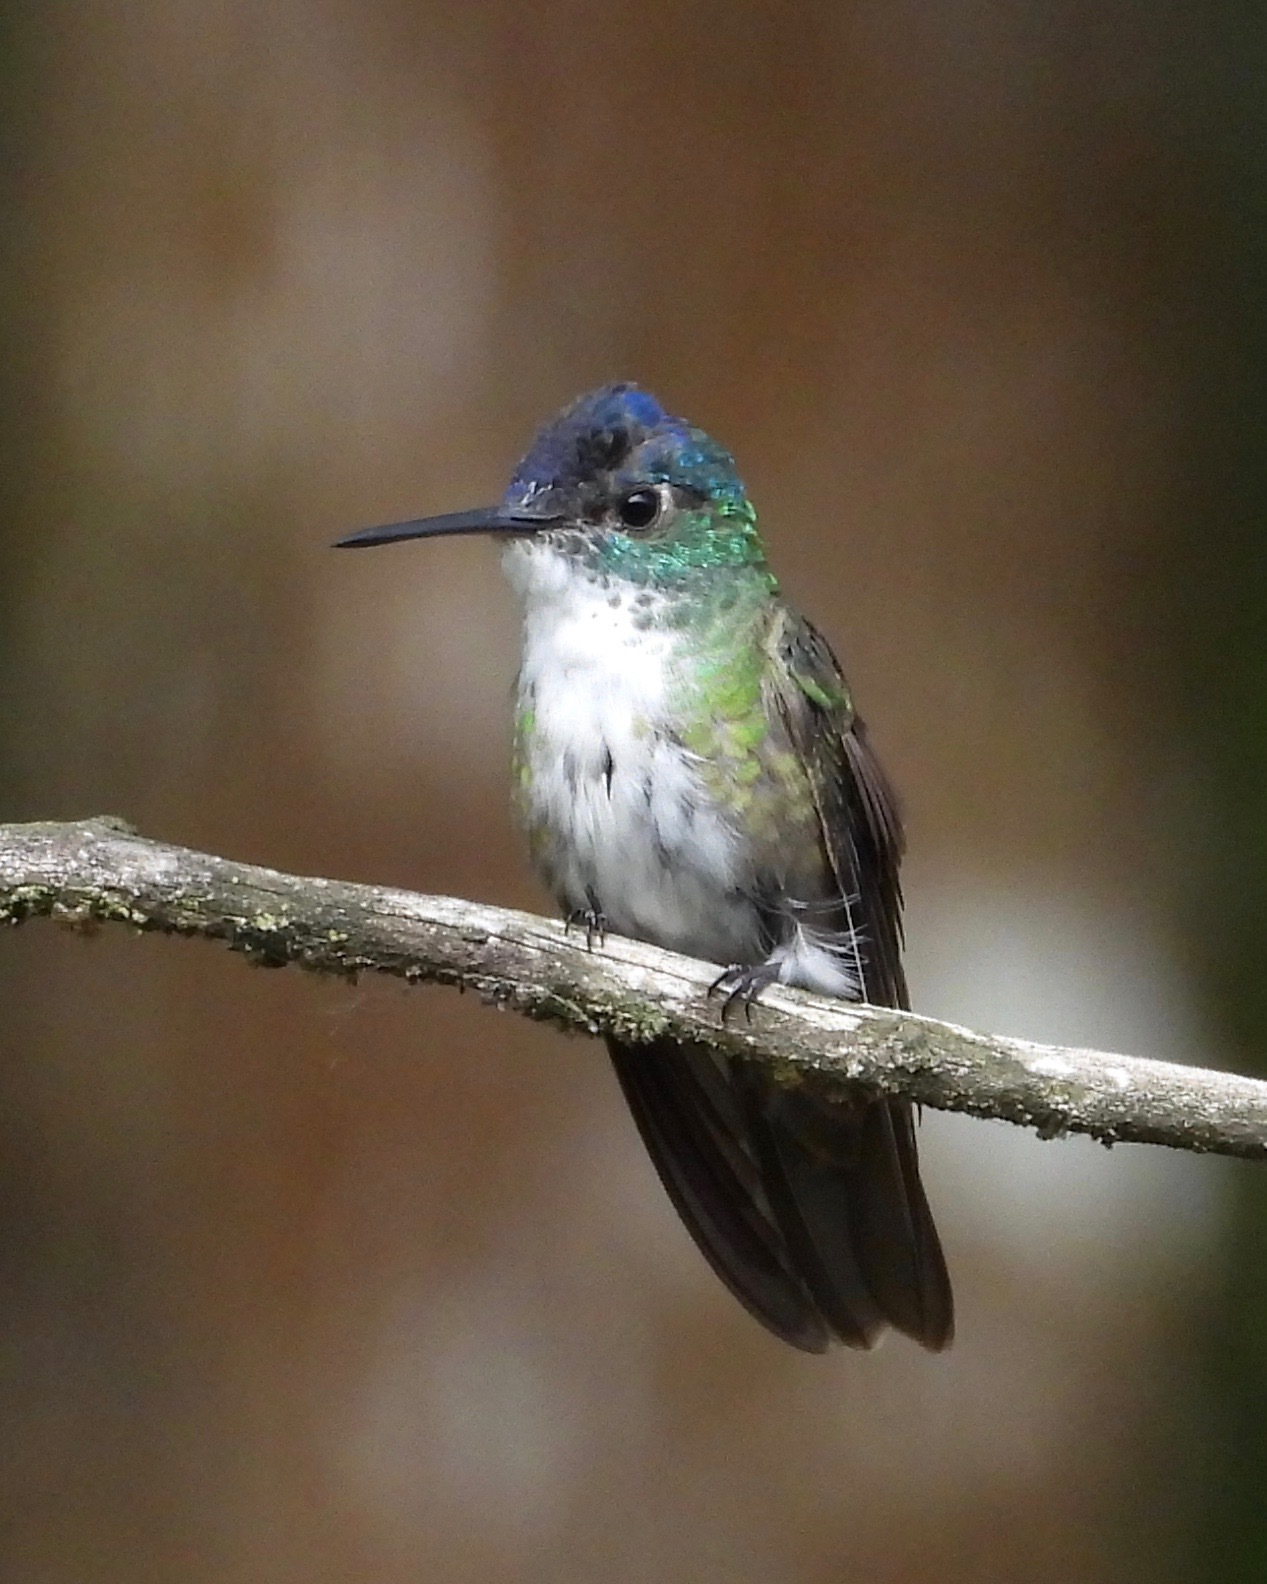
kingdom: Animalia
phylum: Chordata
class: Aves
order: Apodiformes
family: Trochilidae
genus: Saucerottia
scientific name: Saucerottia cyanocephala
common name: Azure-crowned hummingbird
